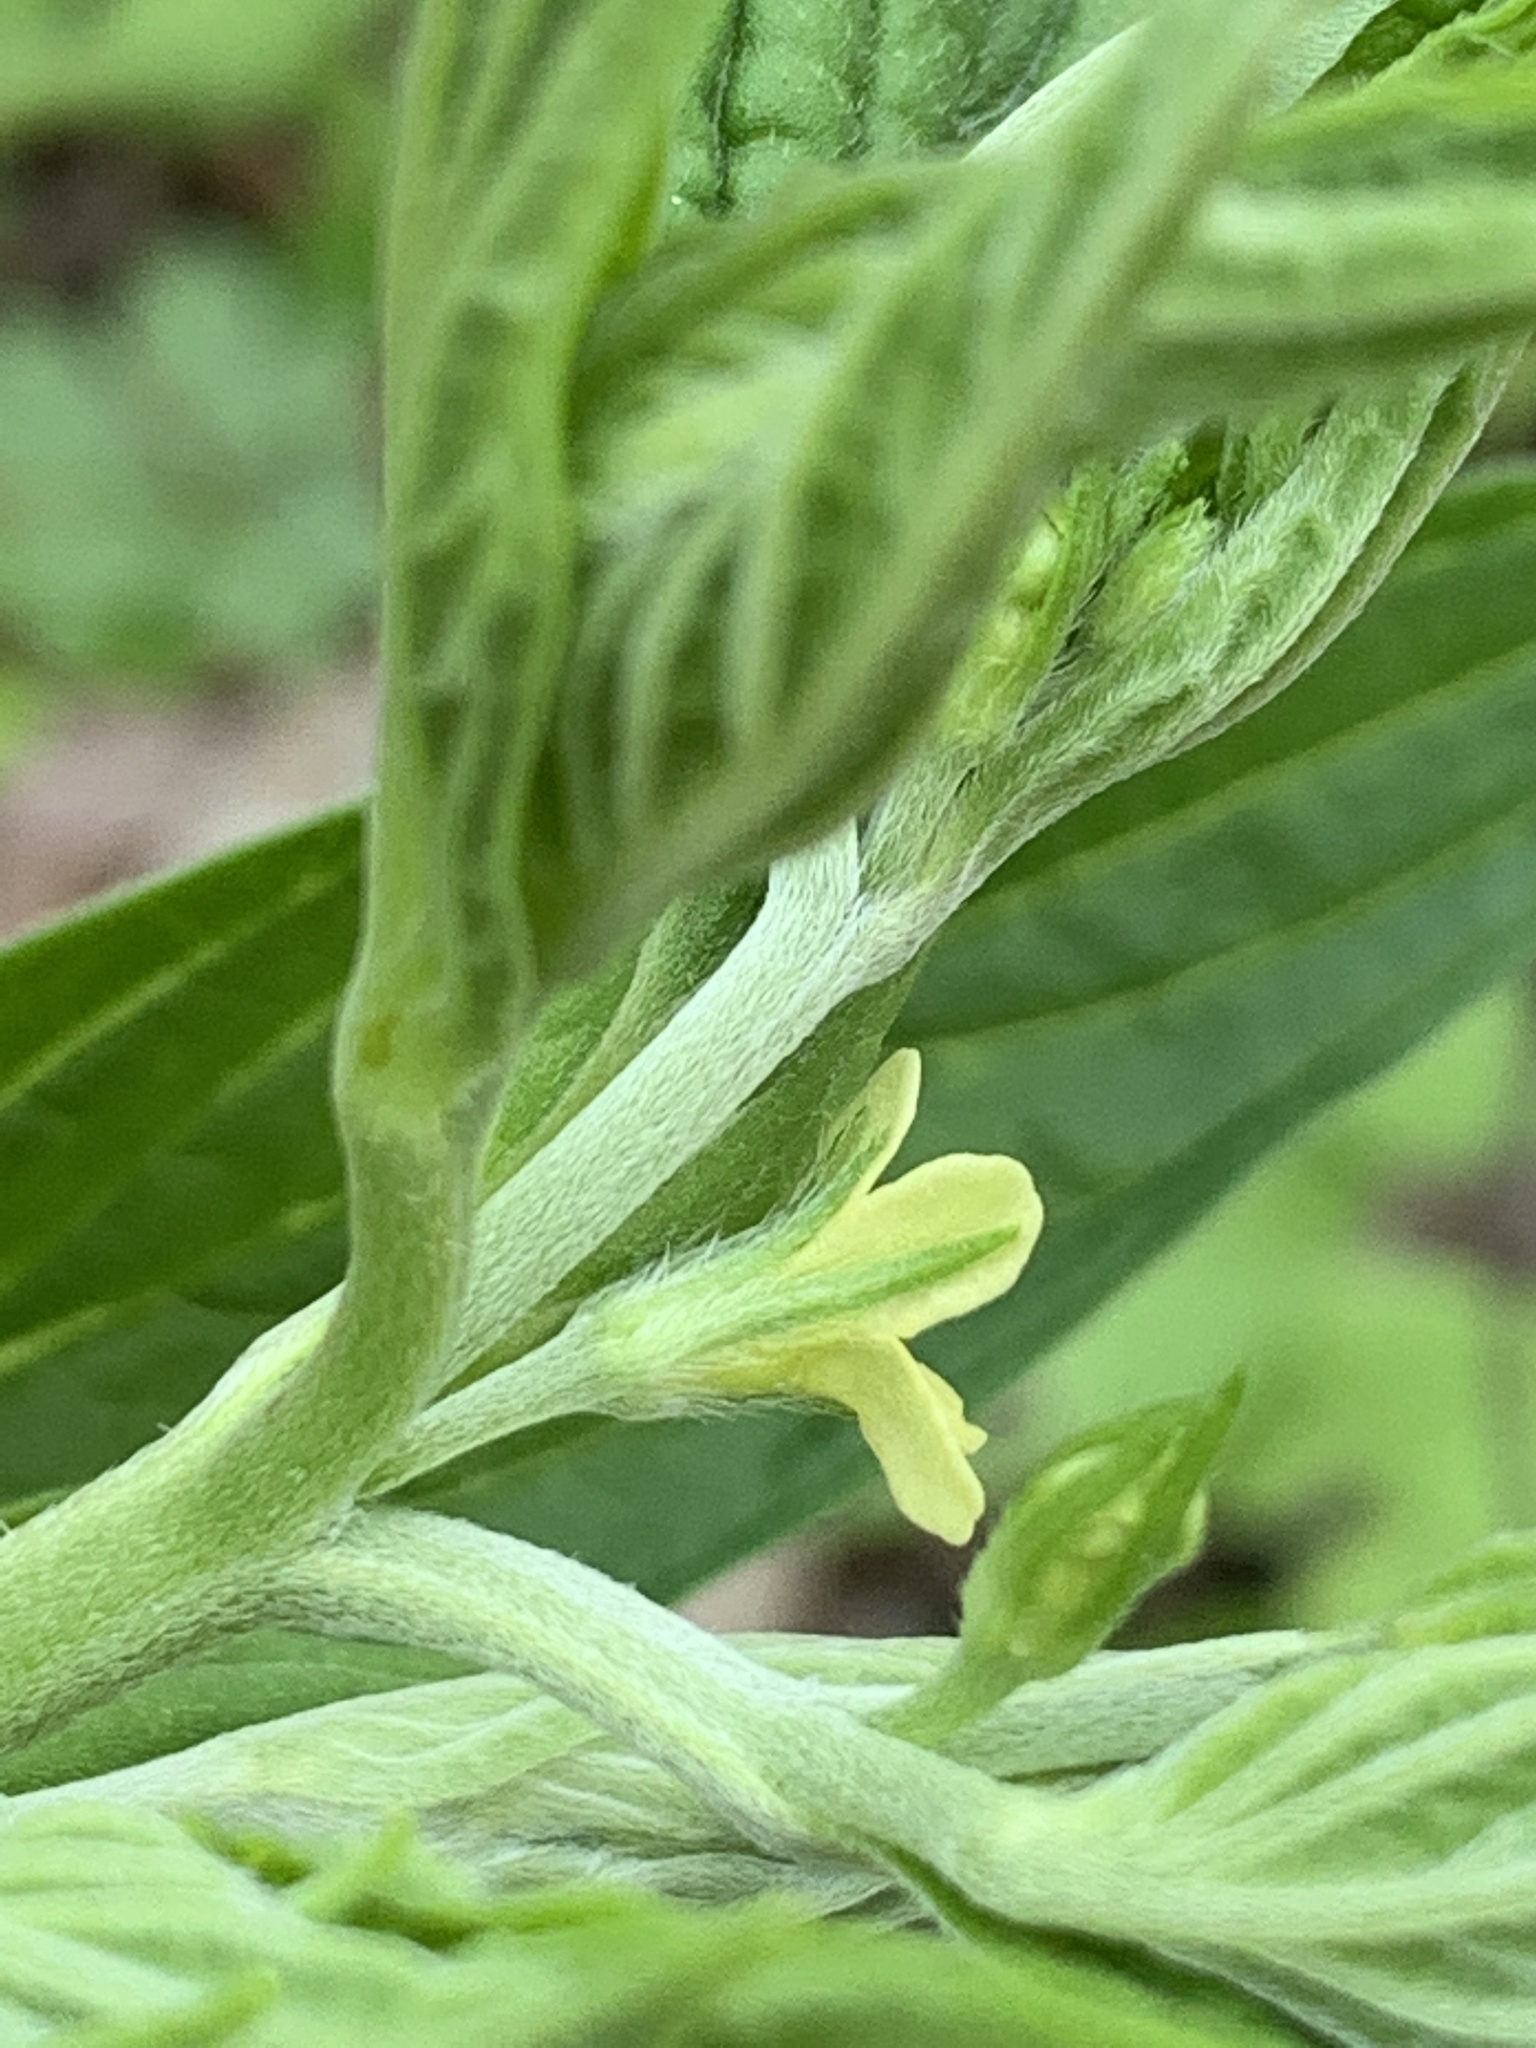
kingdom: Plantae
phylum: Tracheophyta
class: Magnoliopsida
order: Boraginales
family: Boraginaceae
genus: Lithospermum
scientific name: Lithospermum latifolium
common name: American gromwell
